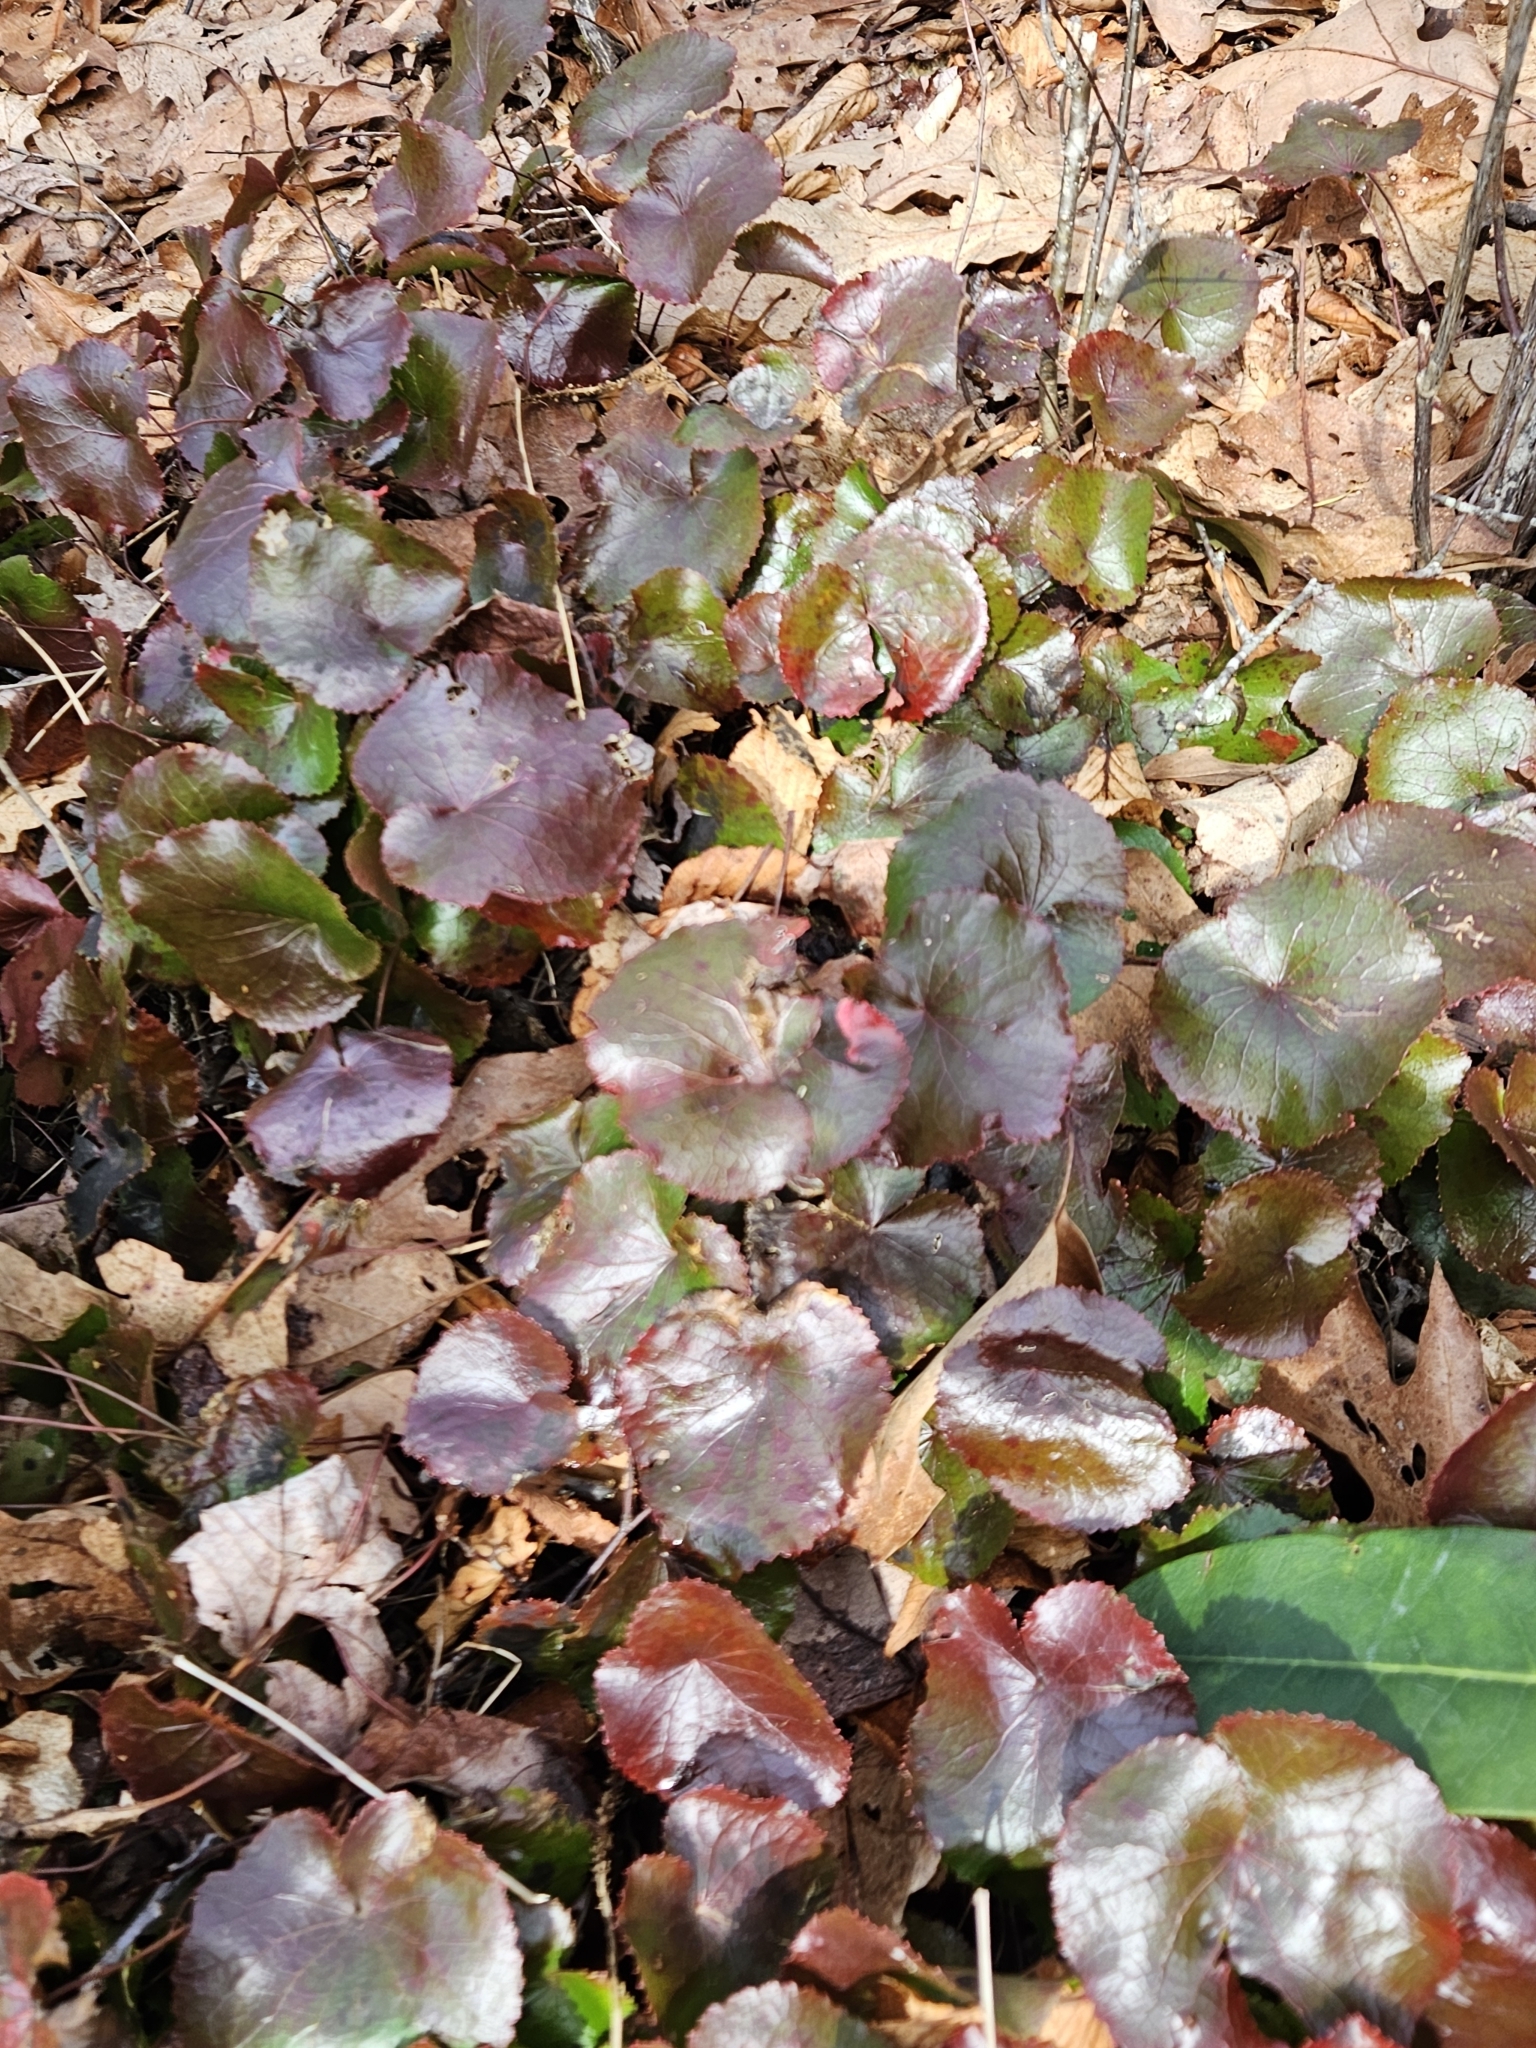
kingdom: Plantae
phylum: Tracheophyta
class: Magnoliopsida
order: Ericales
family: Diapensiaceae
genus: Galax
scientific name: Galax urceolata
